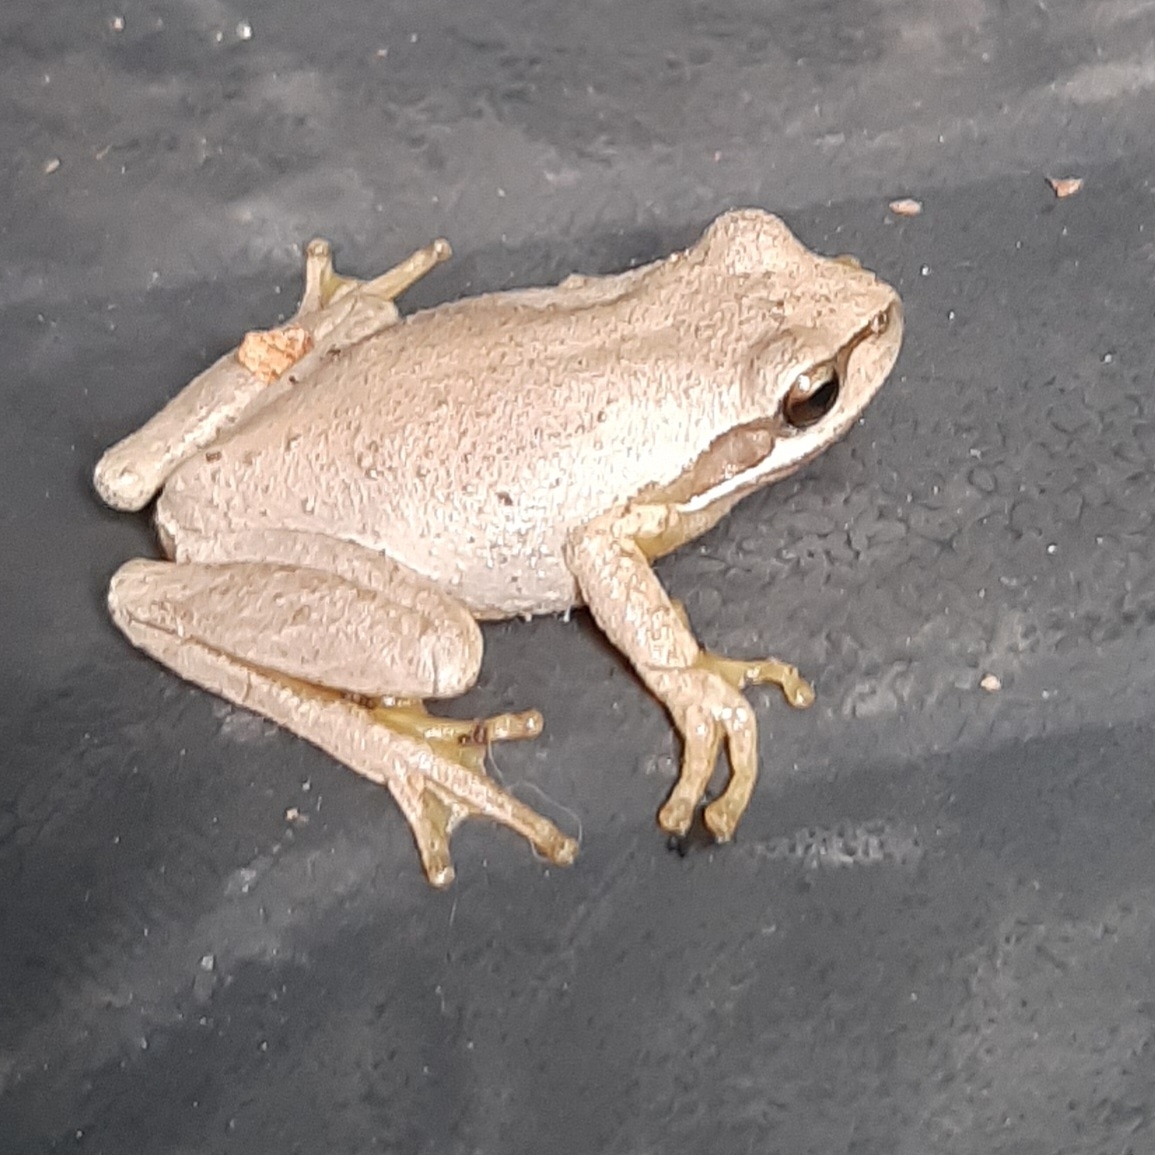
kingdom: Animalia
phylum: Chordata
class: Amphibia
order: Anura
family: Pelodryadidae
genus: Litoria
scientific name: Litoria
